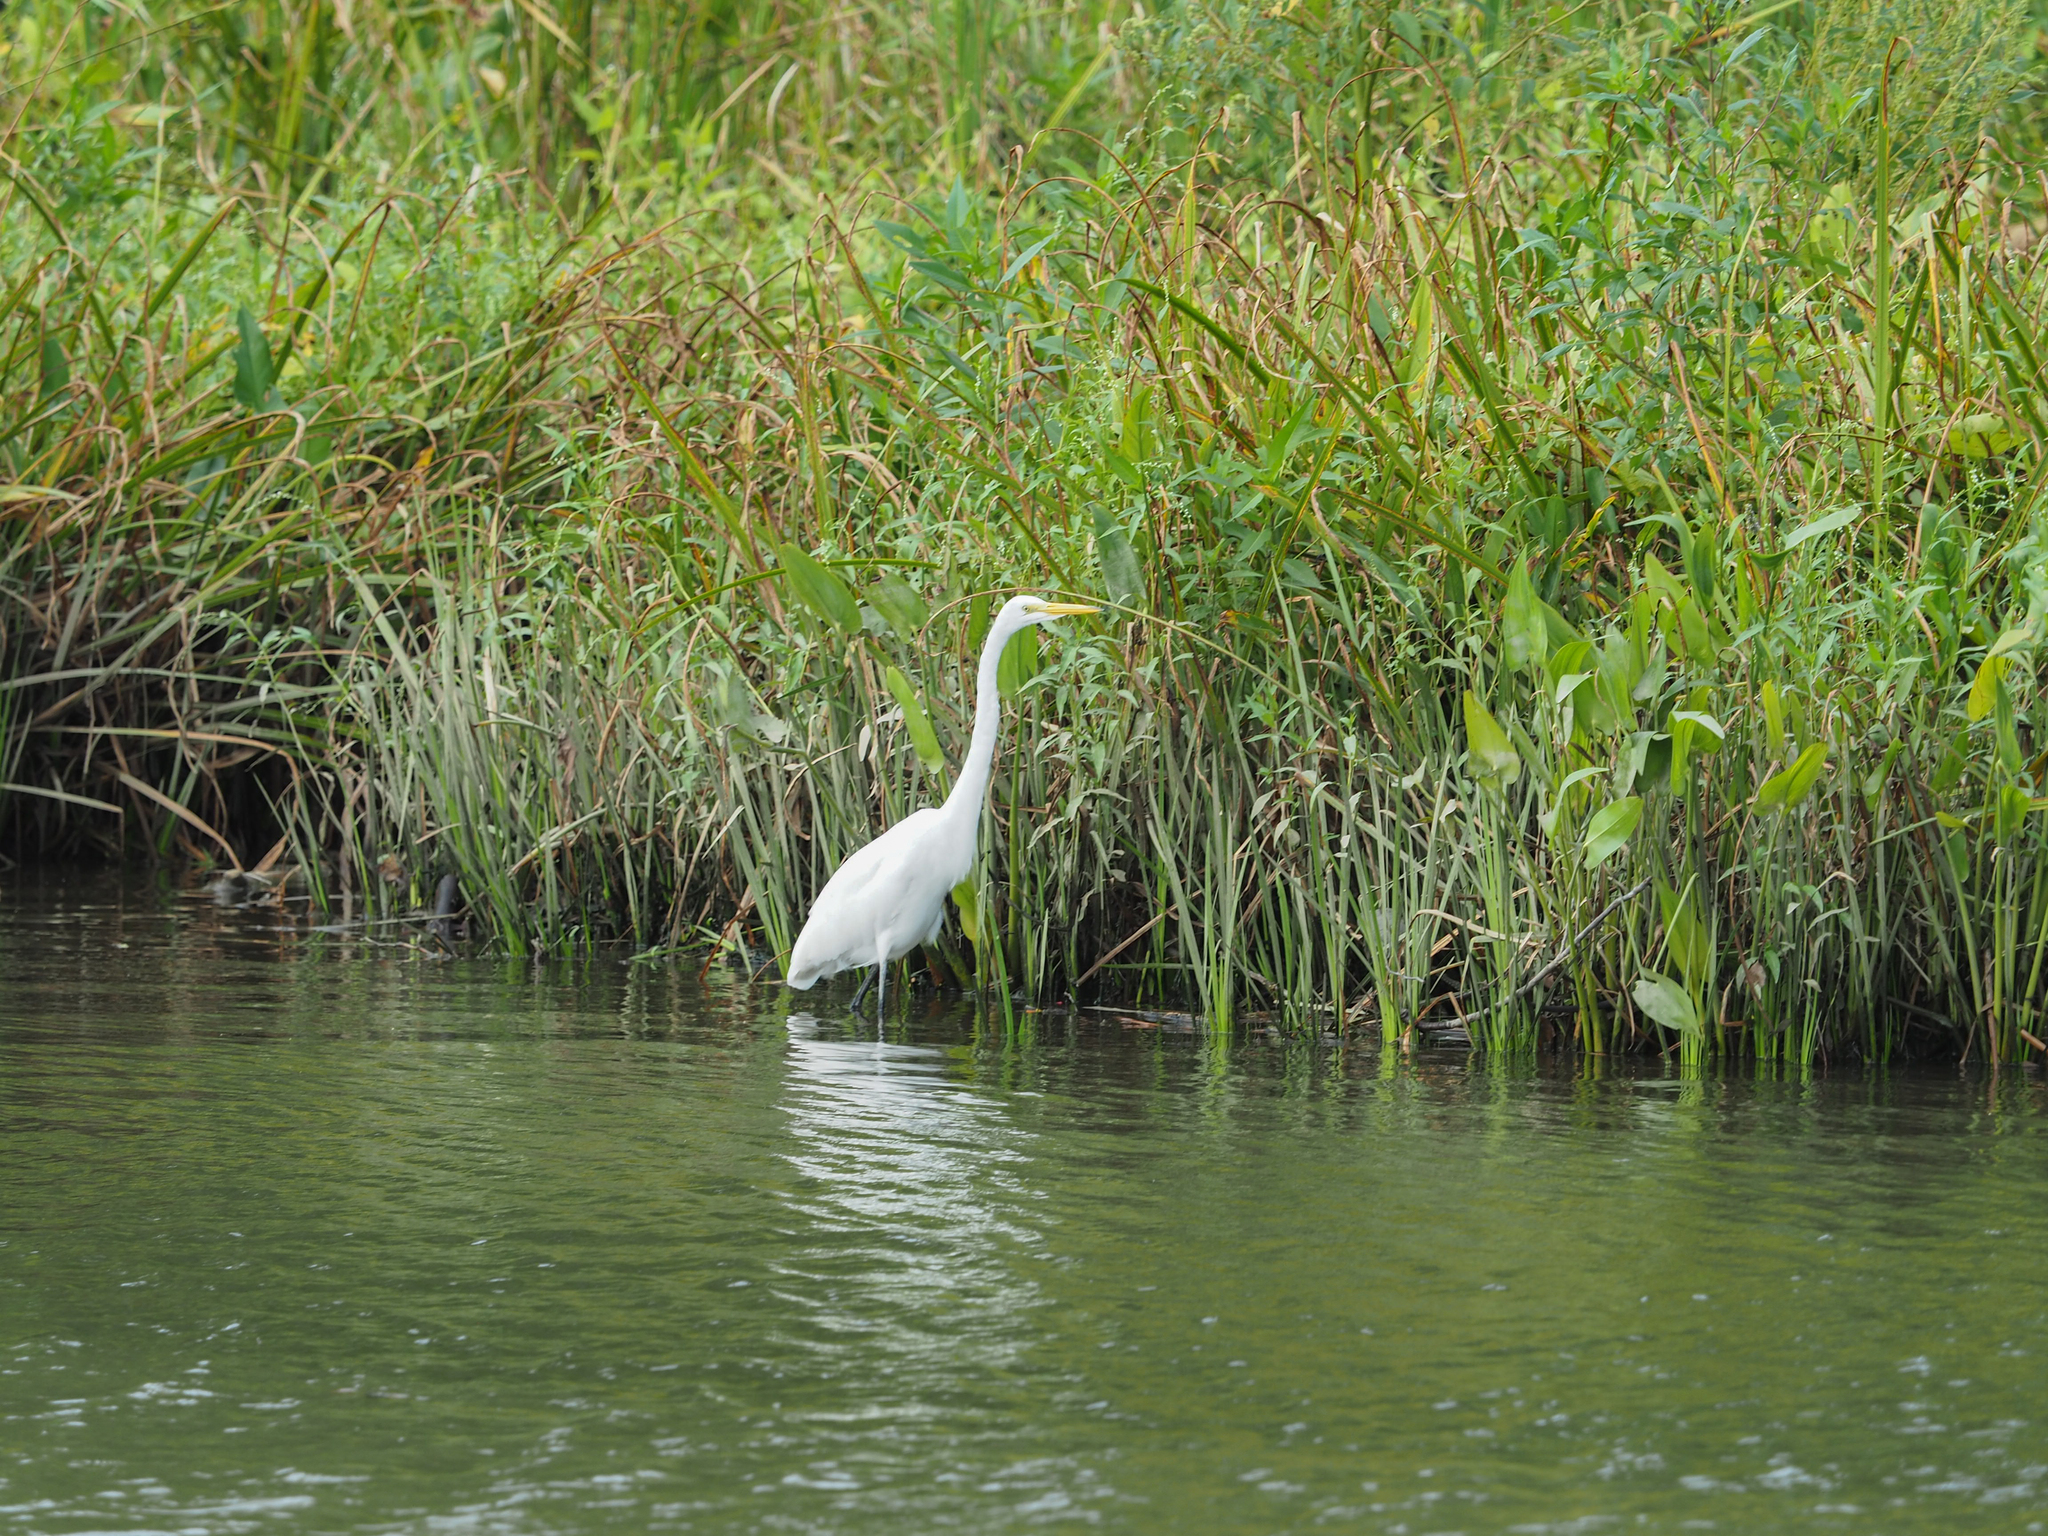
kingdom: Animalia
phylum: Chordata
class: Aves
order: Pelecaniformes
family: Ardeidae
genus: Ardea
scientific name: Ardea alba
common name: Great egret
